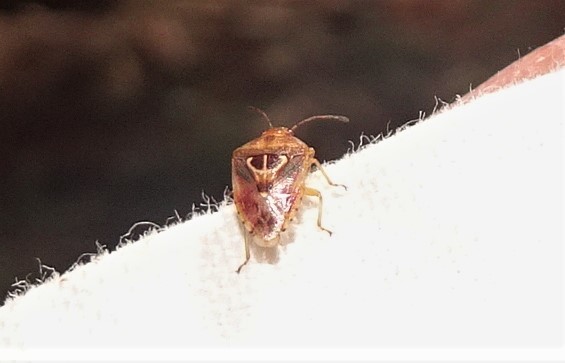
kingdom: Animalia
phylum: Arthropoda
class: Insecta
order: Hemiptera
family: Acanthosomatidae
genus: Eupolemus
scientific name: Eupolemus angularis
